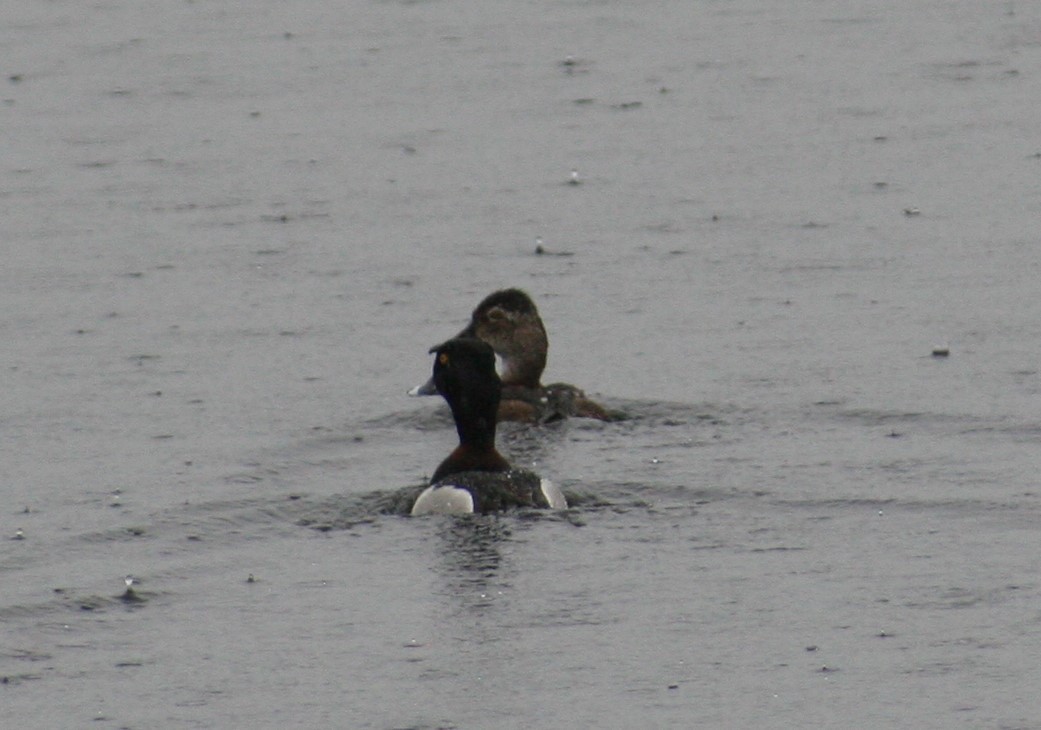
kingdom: Animalia
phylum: Chordata
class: Aves
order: Anseriformes
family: Anatidae
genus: Aythya
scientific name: Aythya collaris
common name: Ring-necked duck
